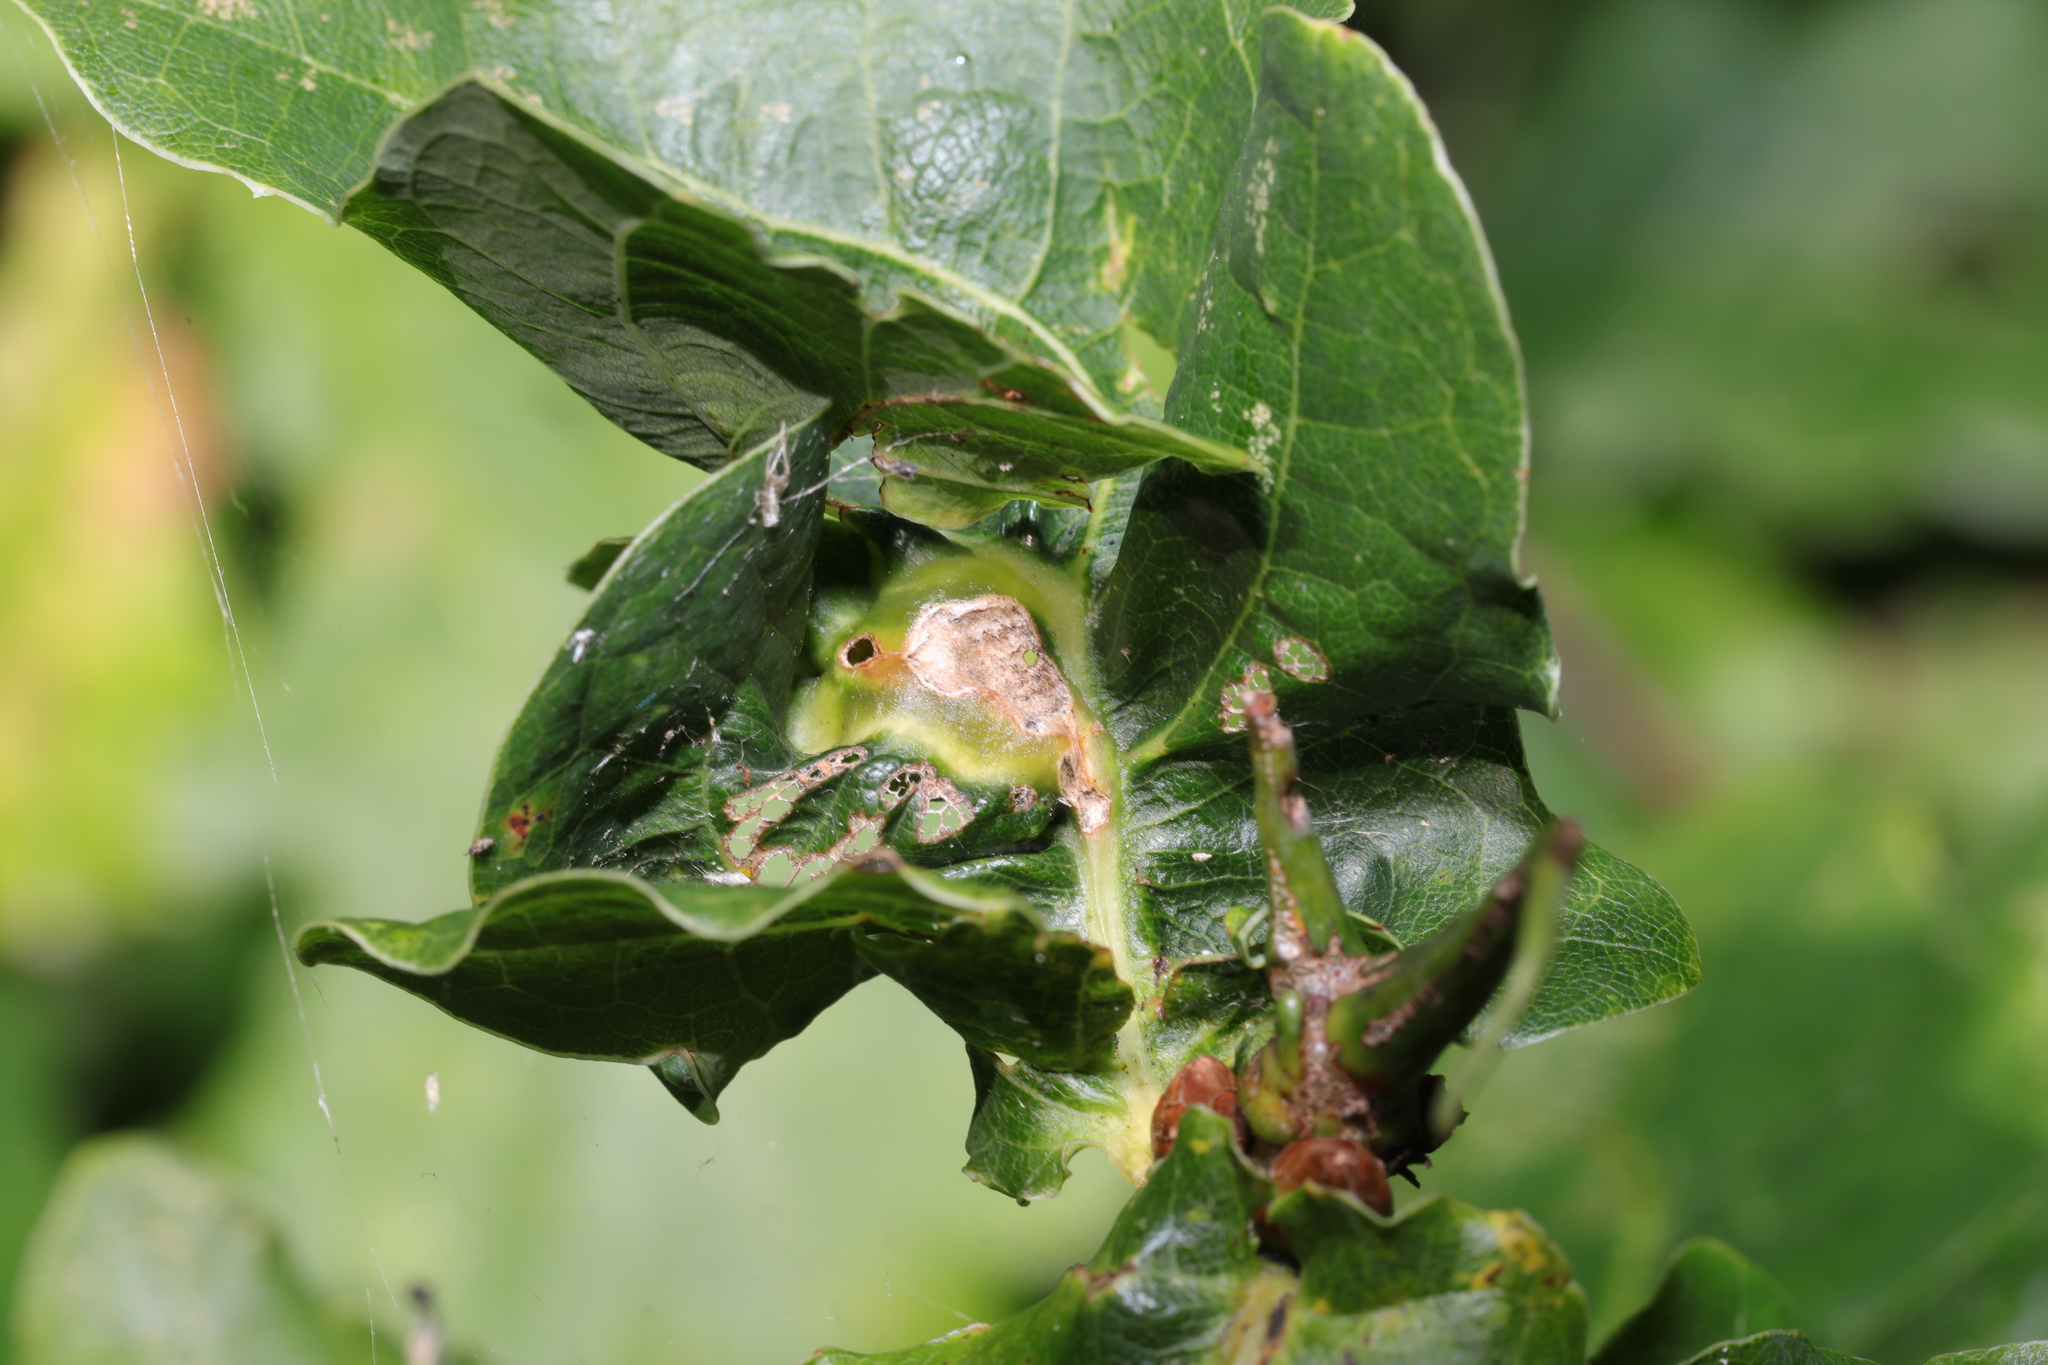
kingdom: Animalia
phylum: Arthropoda
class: Insecta
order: Hymenoptera
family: Cynipidae
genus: Andricus
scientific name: Andricus curvator
